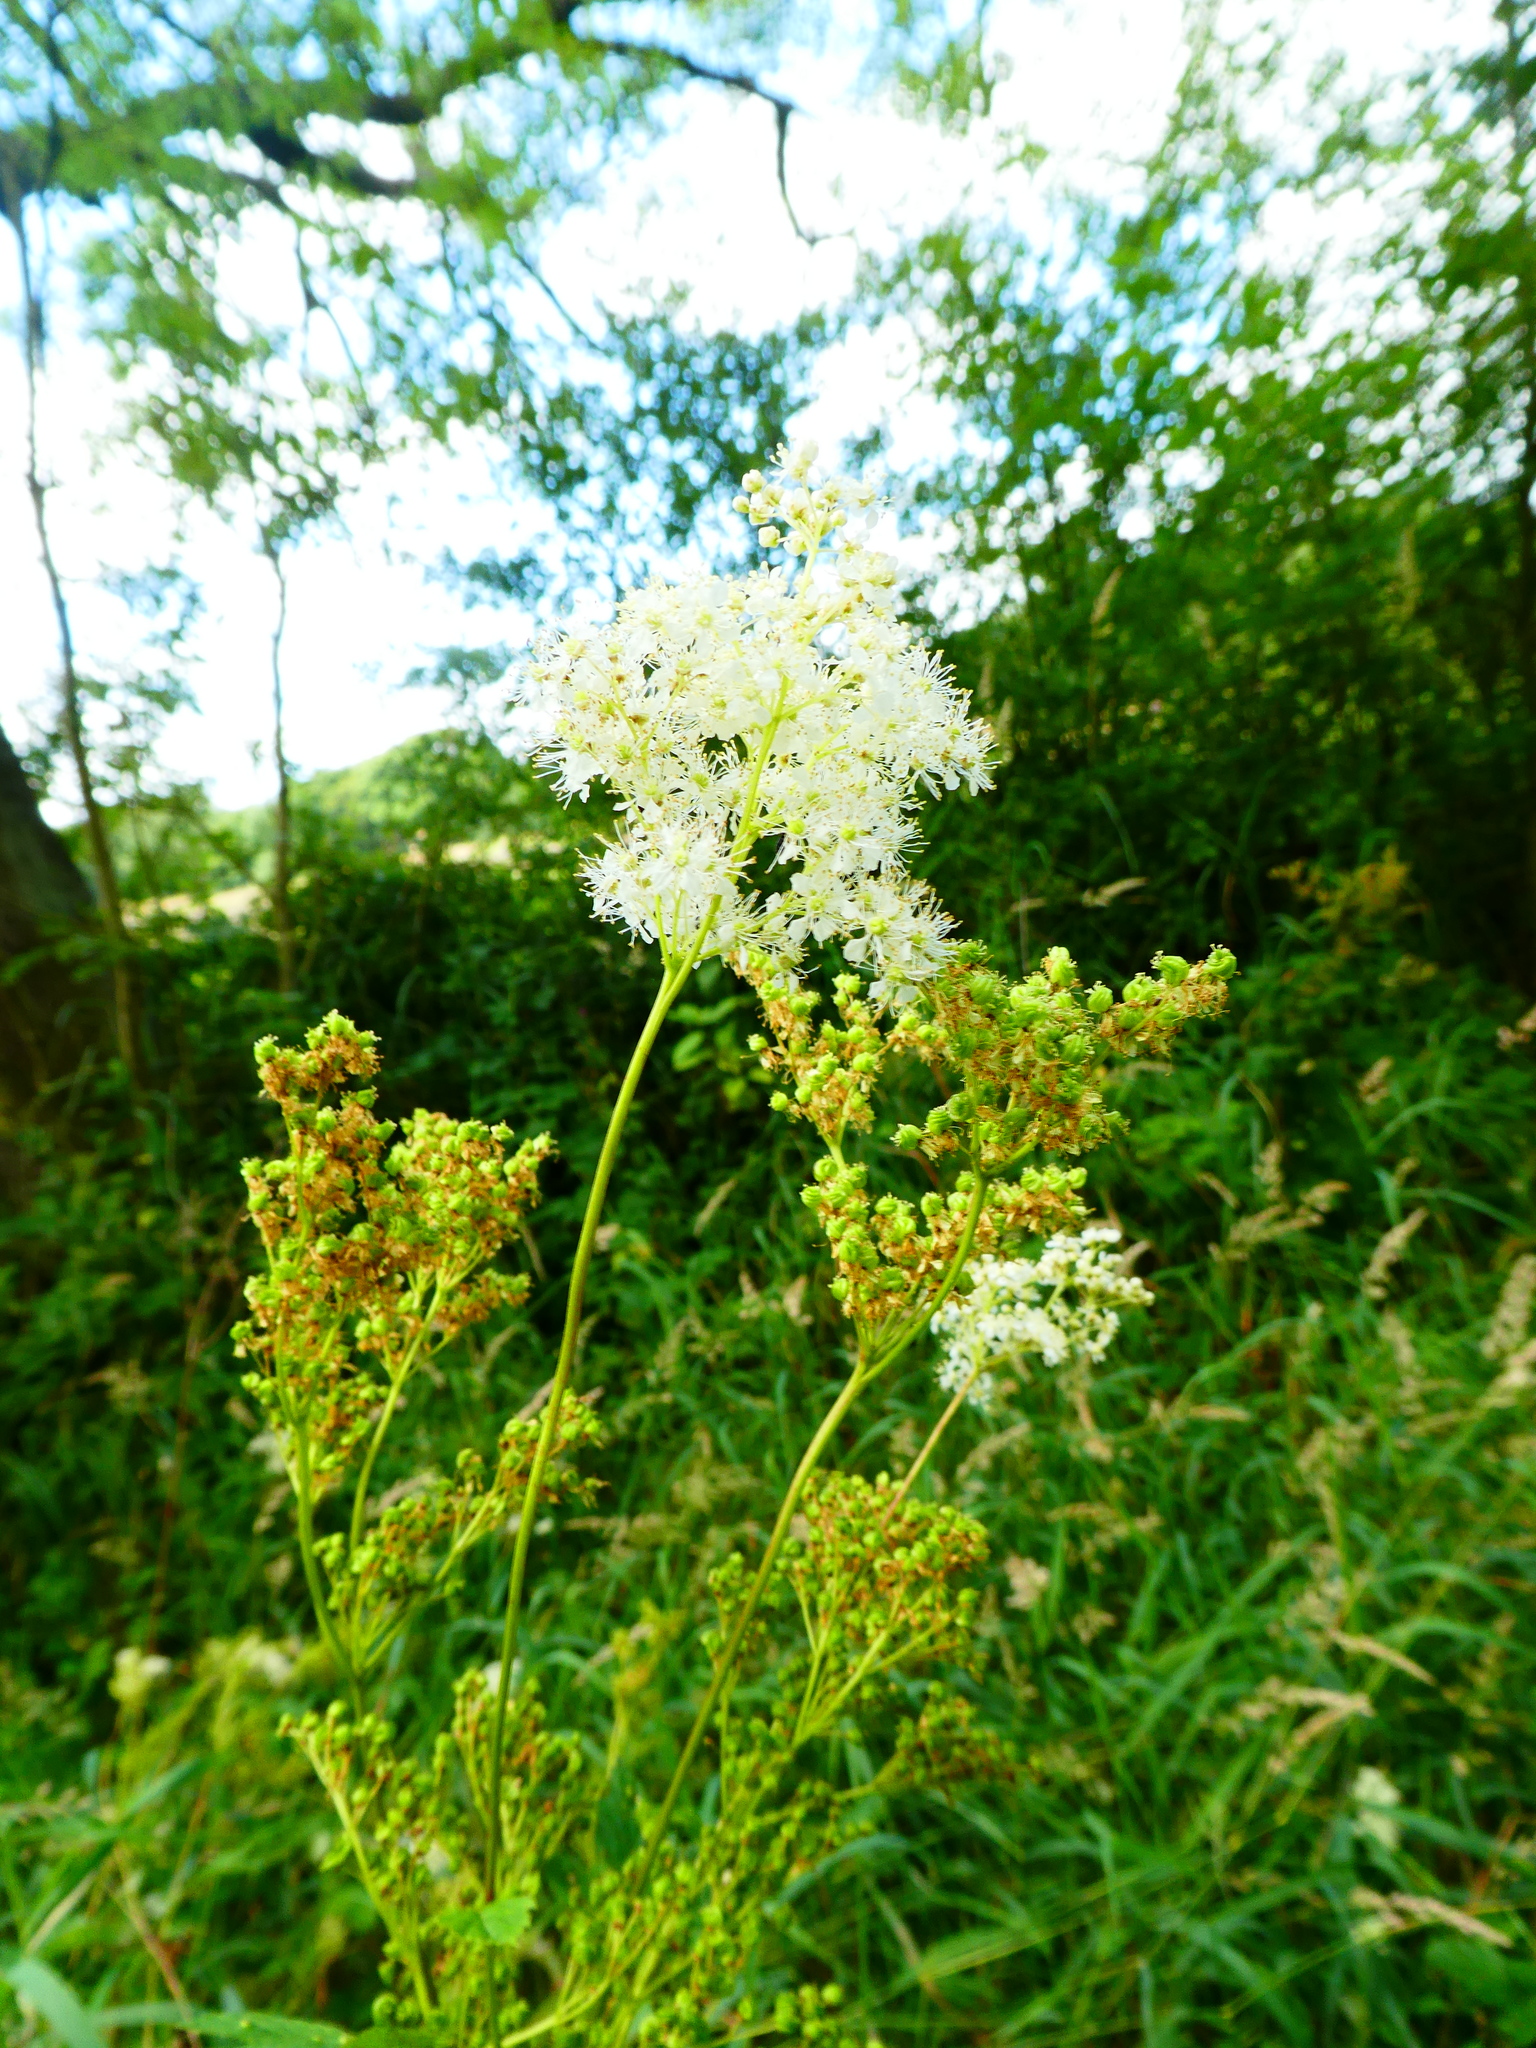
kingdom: Plantae
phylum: Tracheophyta
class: Magnoliopsida
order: Rosales
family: Rosaceae
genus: Filipendula
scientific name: Filipendula ulmaria
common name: Meadowsweet
